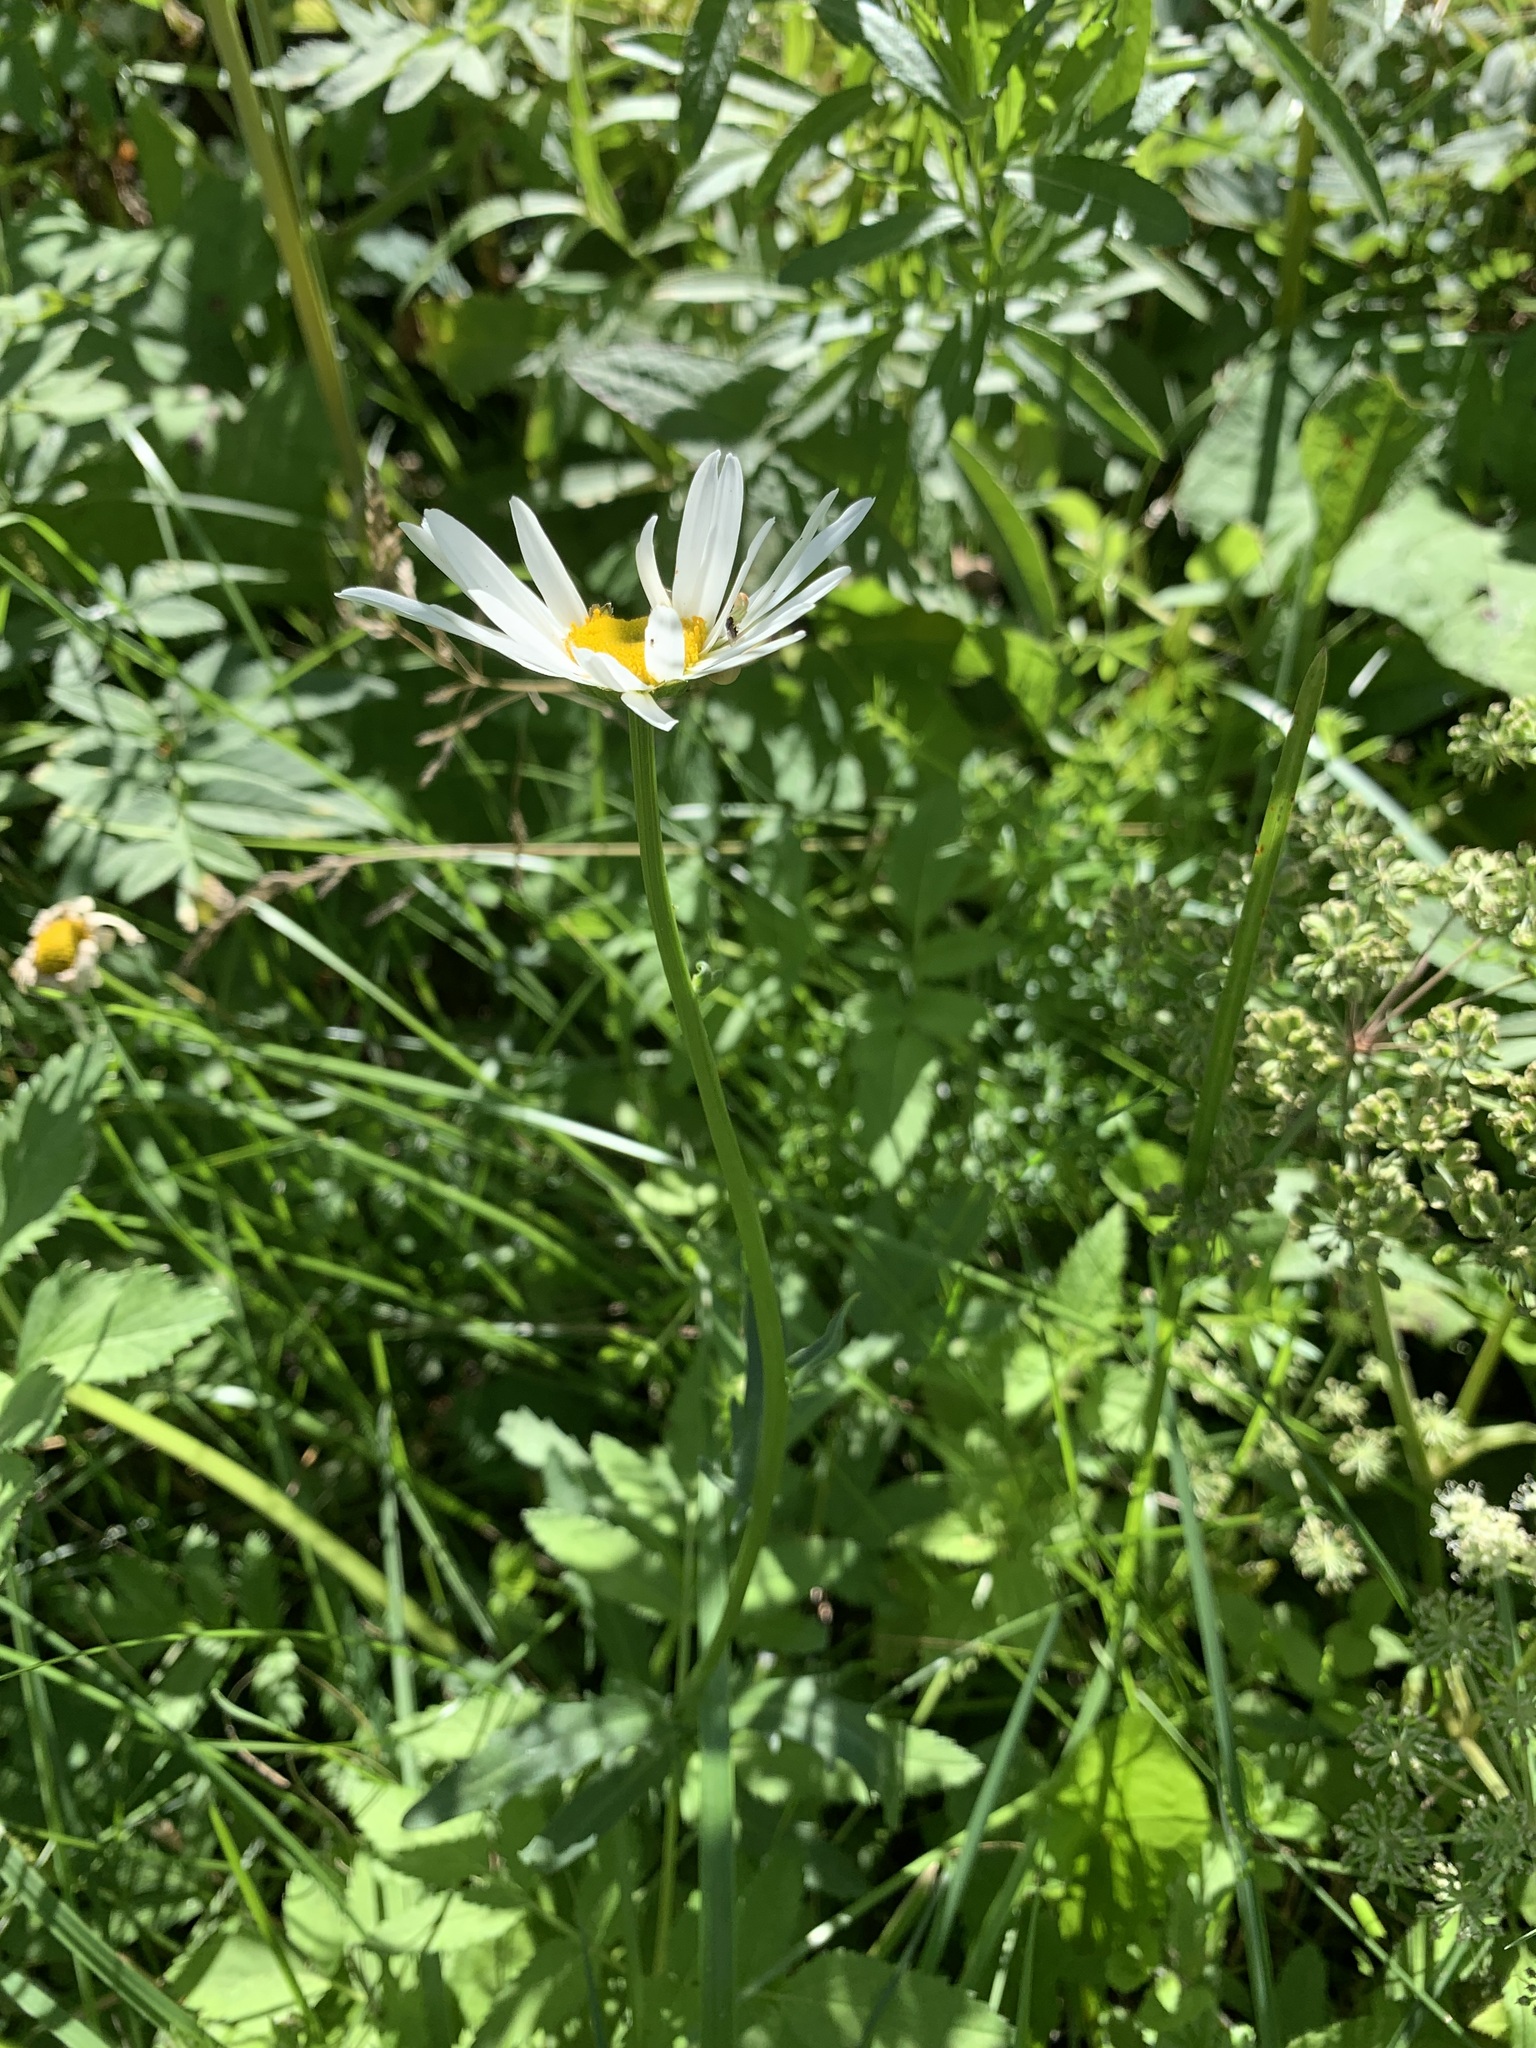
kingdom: Plantae
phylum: Tracheophyta
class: Magnoliopsida
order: Asterales
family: Asteraceae
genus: Leucanthemum
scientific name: Leucanthemum ircutianum
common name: Daisy
